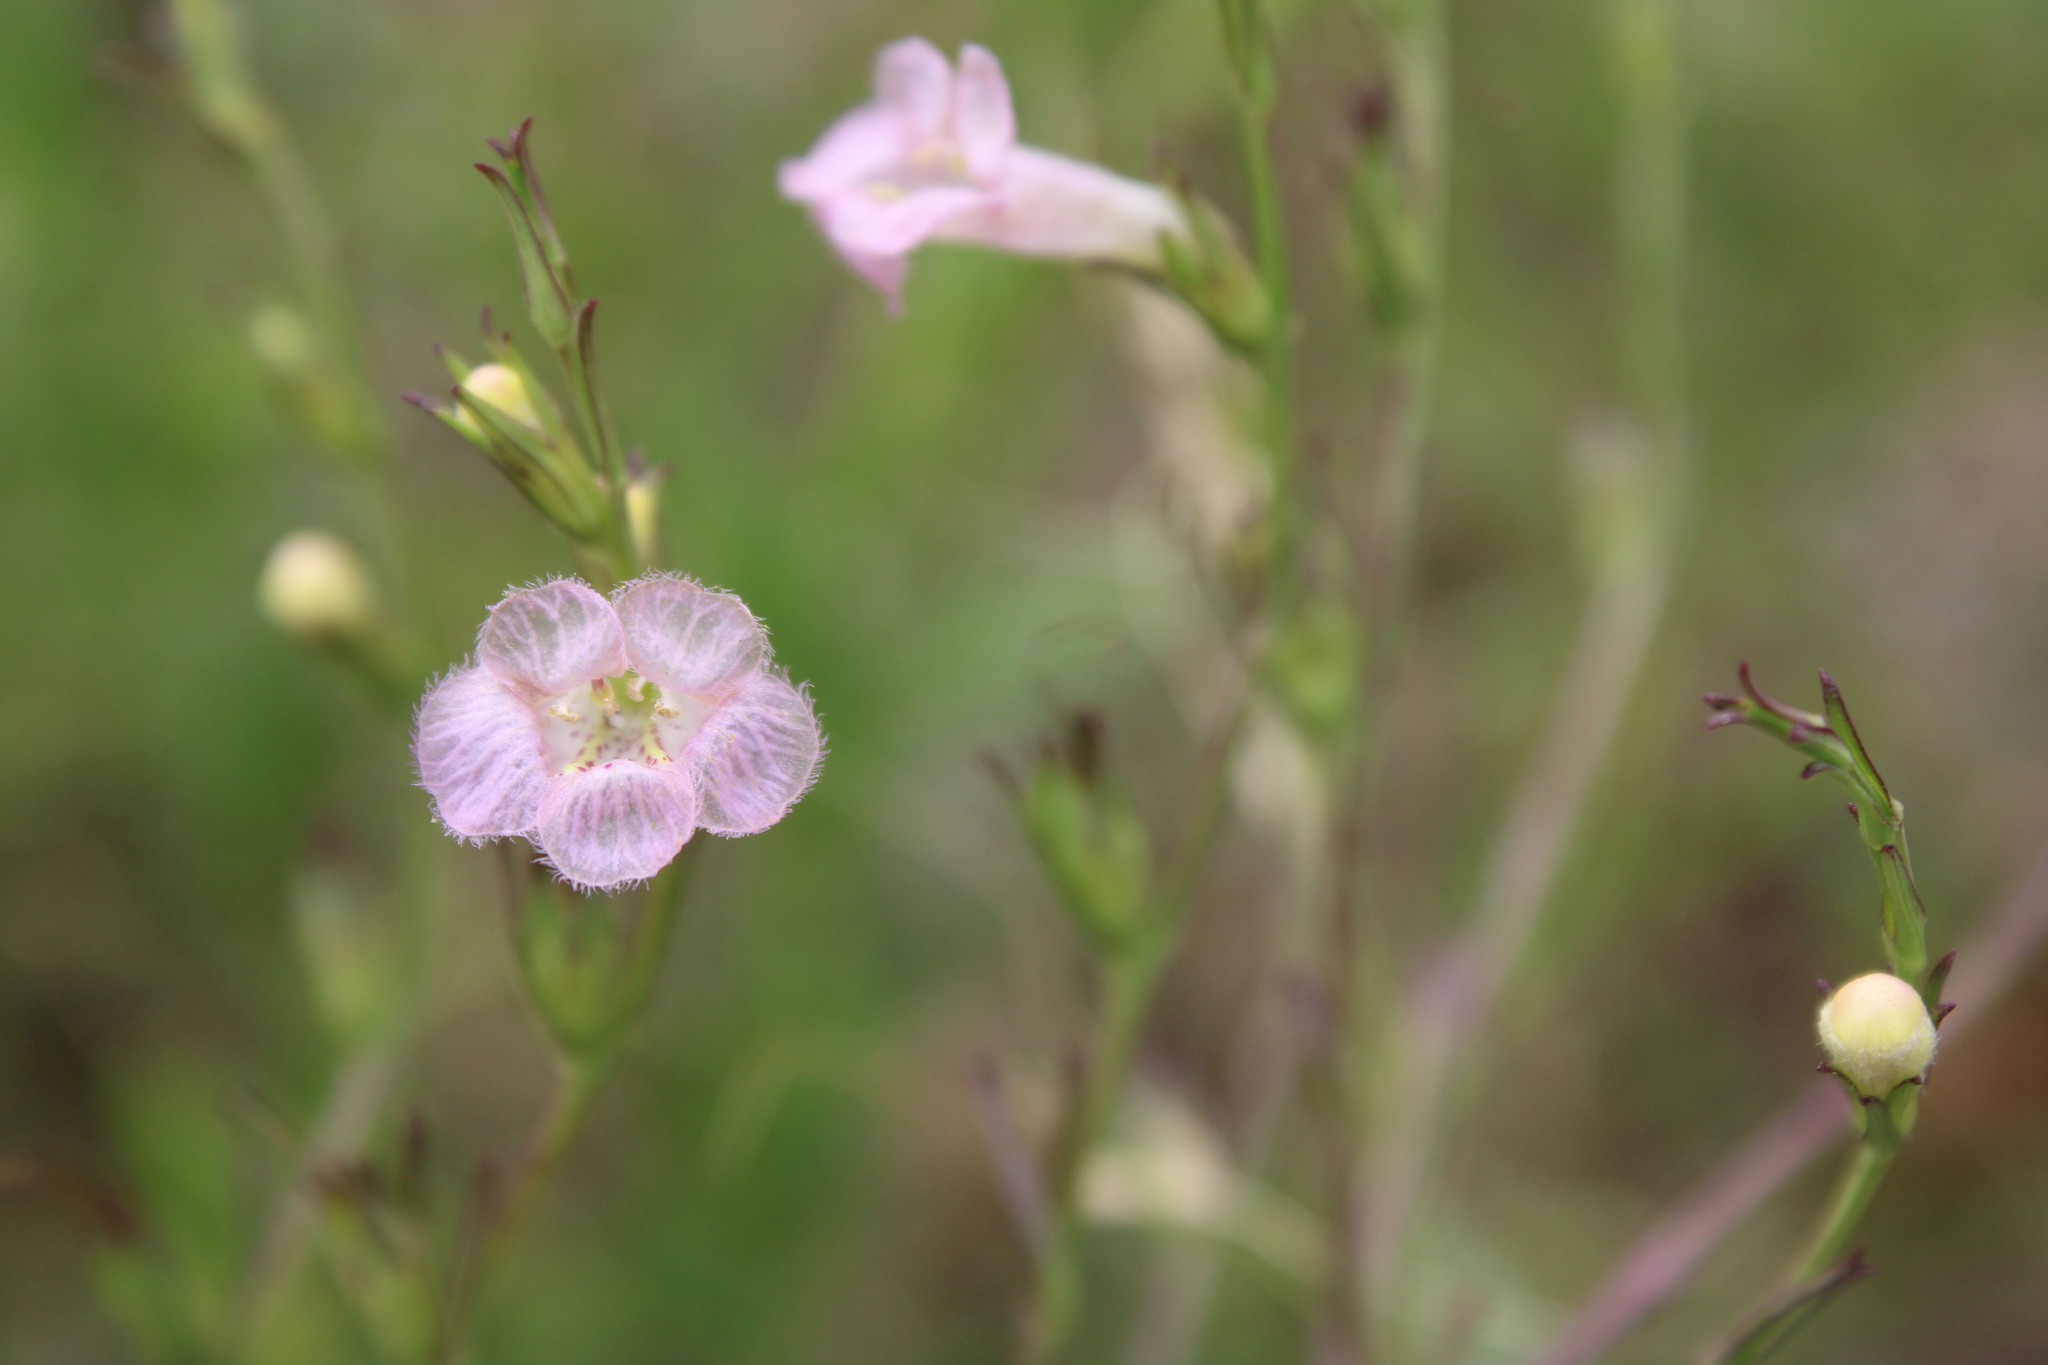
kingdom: Plantae
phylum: Tracheophyta
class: Magnoliopsida
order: Lamiales
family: Orobanchaceae
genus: Agalinis
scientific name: Agalinis communis
